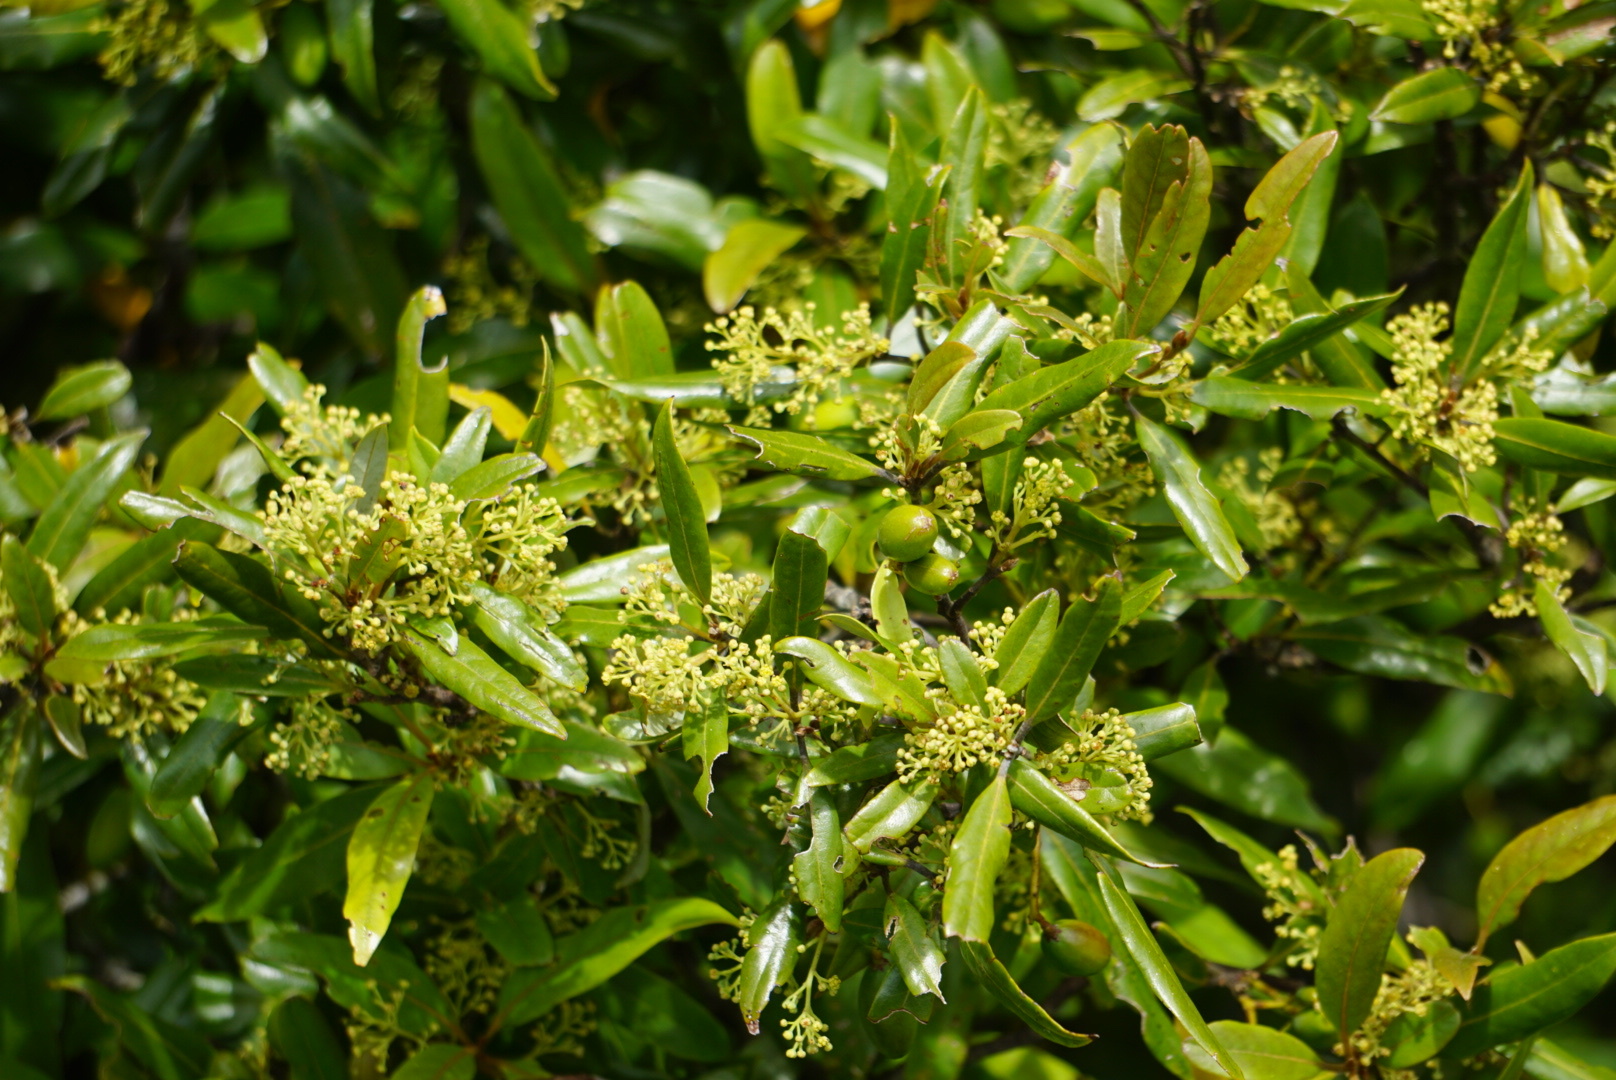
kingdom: Plantae
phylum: Tracheophyta
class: Magnoliopsida
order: Laurales
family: Lauraceae
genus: Beilschmiedia
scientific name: Beilschmiedia tawa
